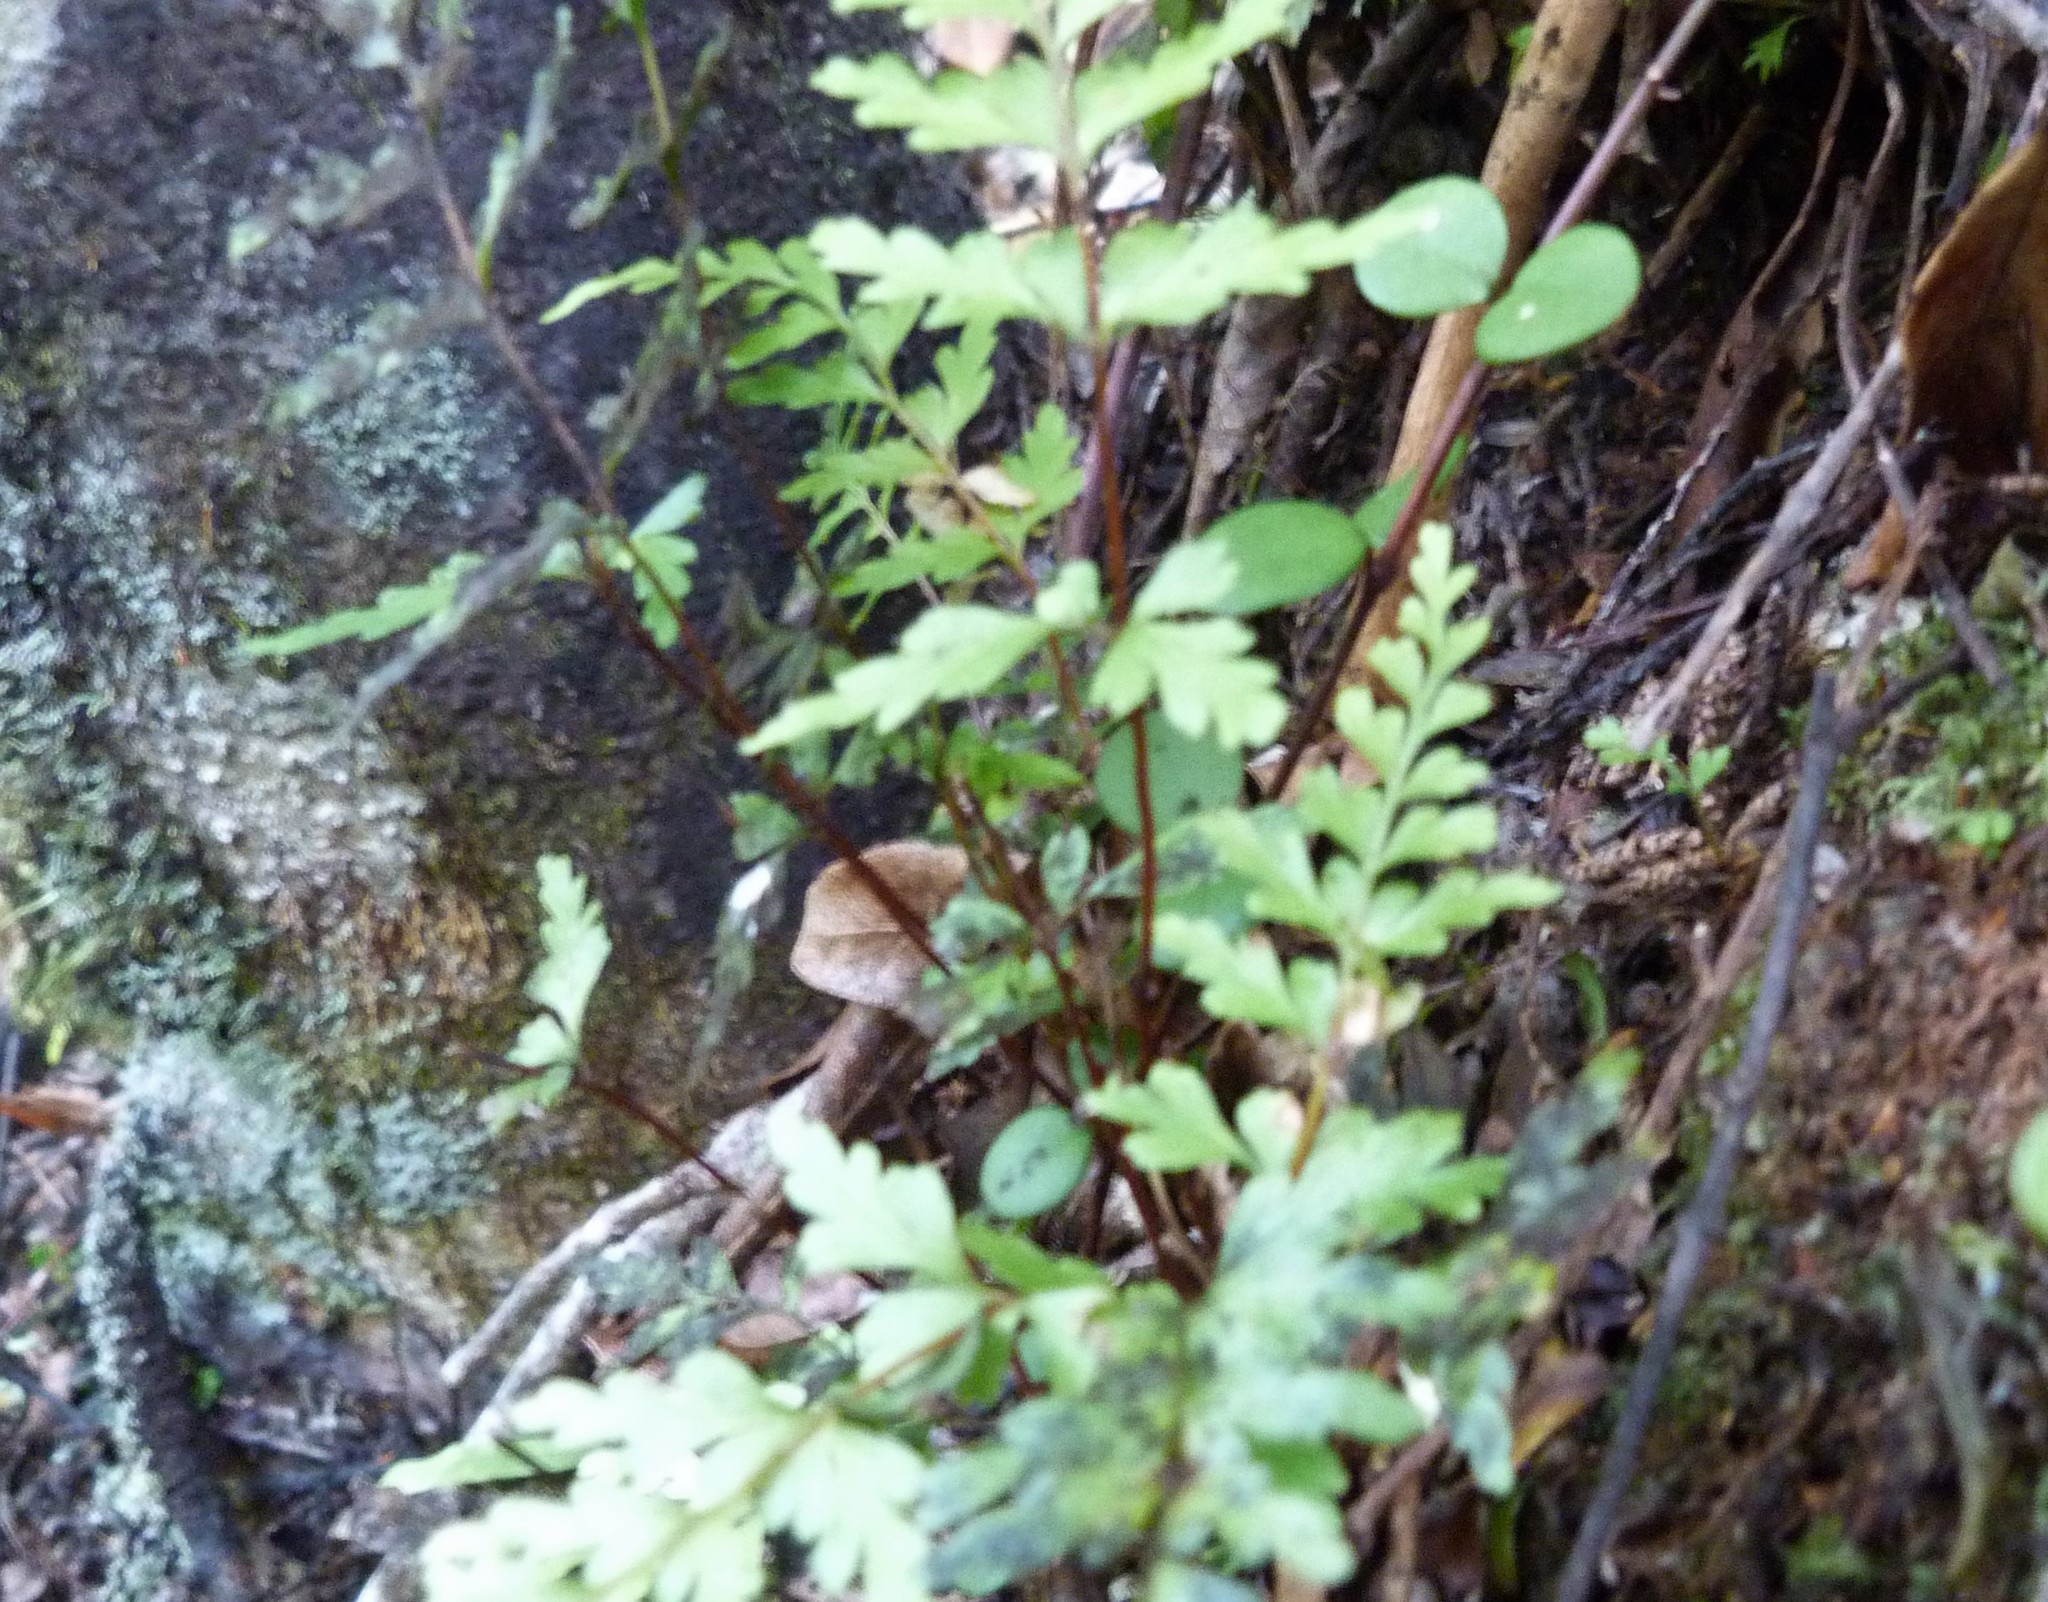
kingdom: Plantae
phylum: Tracheophyta
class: Polypodiopsida
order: Polypodiales
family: Lindsaeaceae
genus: Lindsaea
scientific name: Lindsaea trichomanoides
